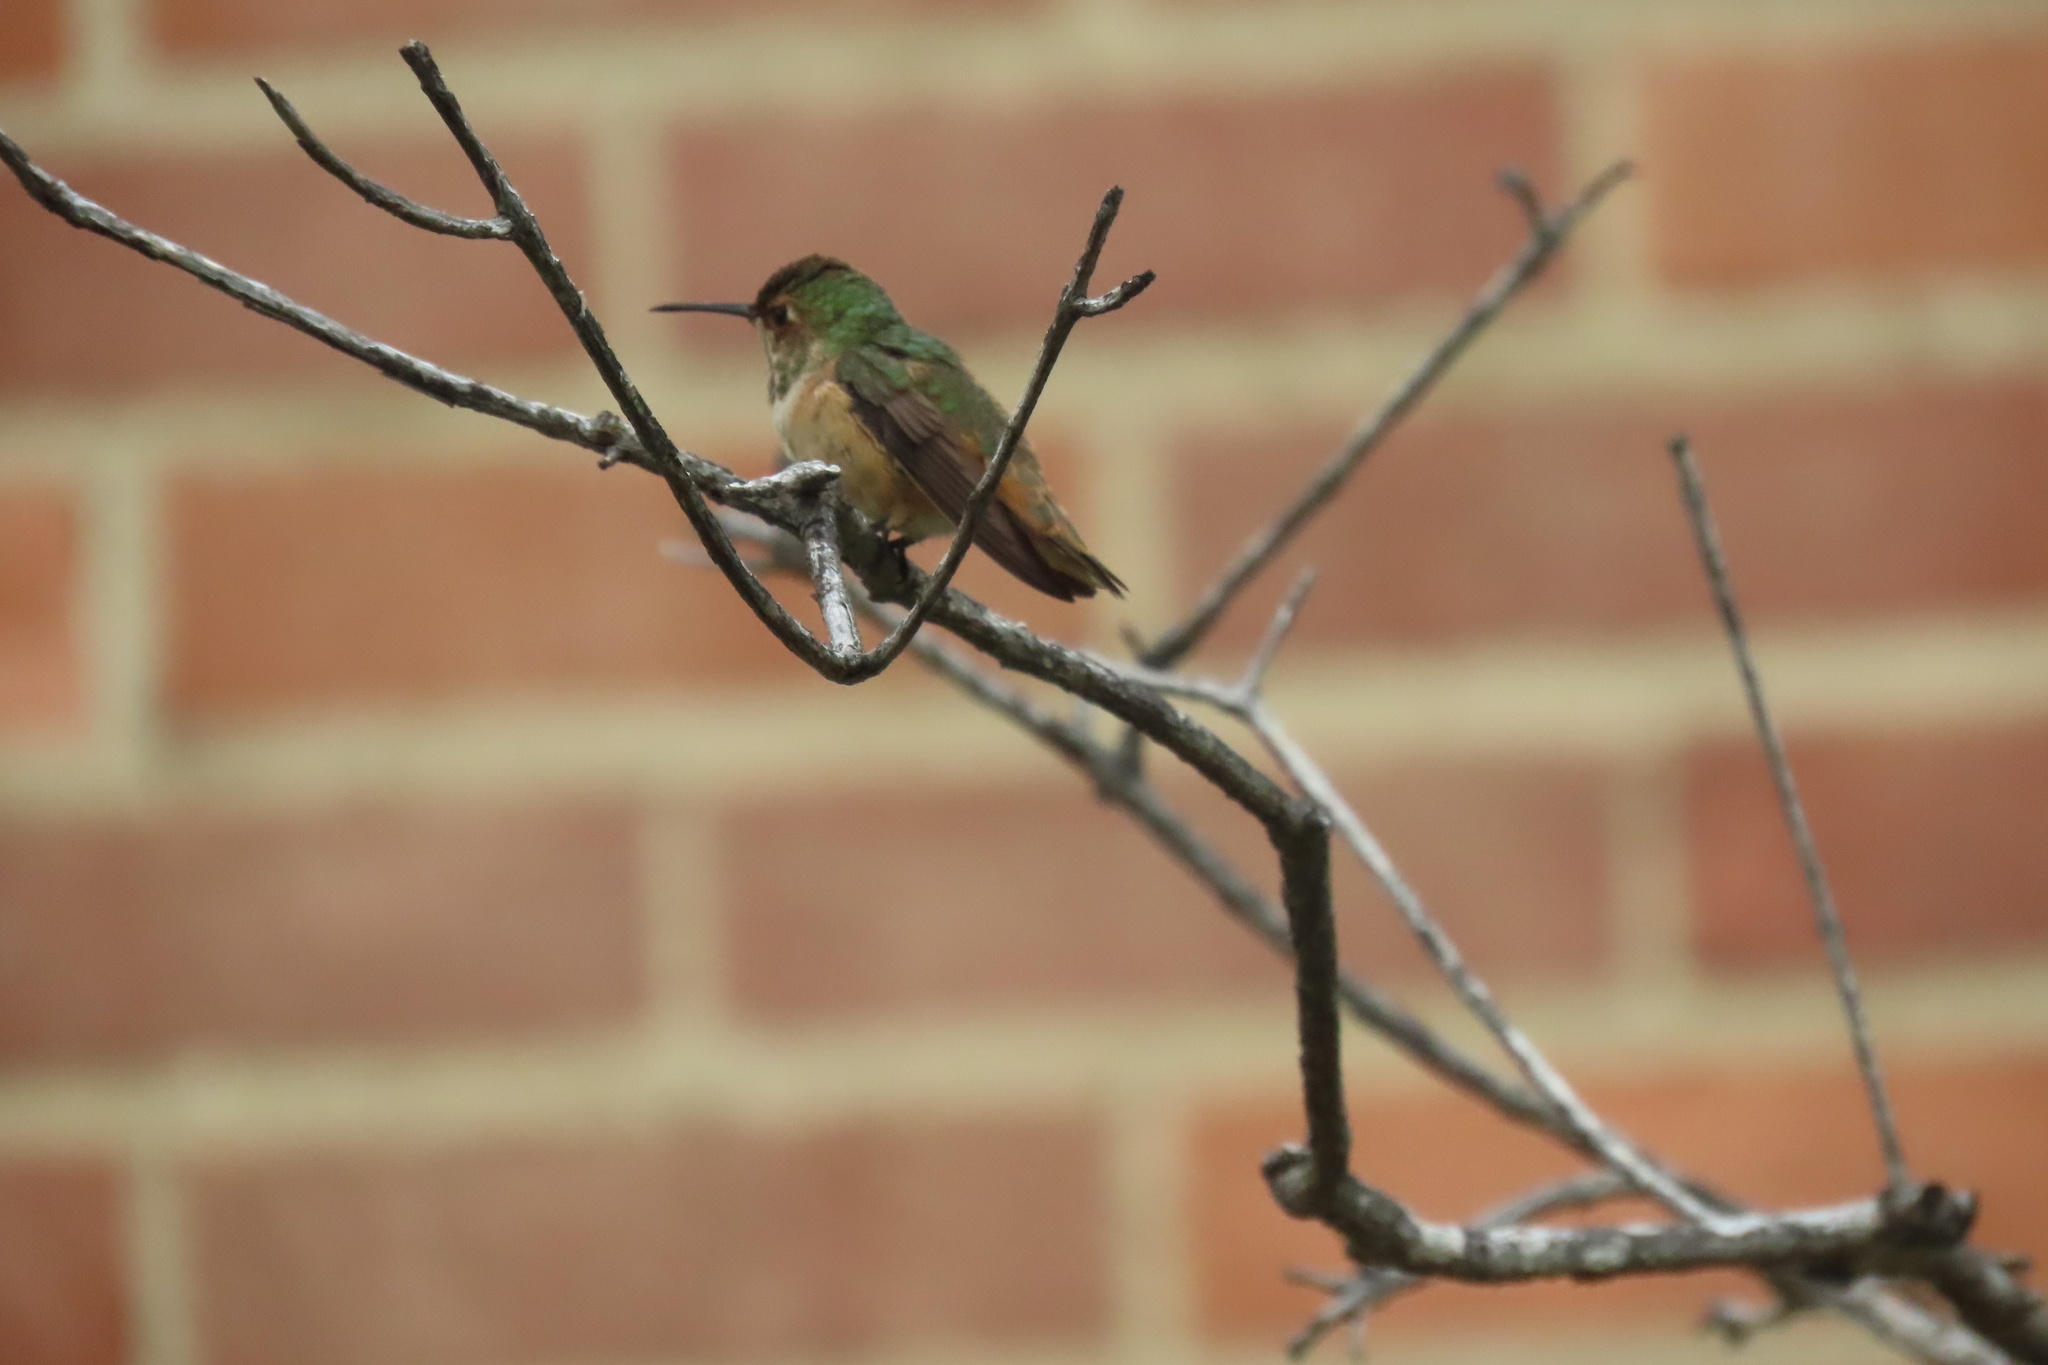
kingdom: Animalia
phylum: Chordata
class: Aves
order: Apodiformes
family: Trochilidae
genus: Selasphorus
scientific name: Selasphorus sasin
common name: Allen's hummingbird
